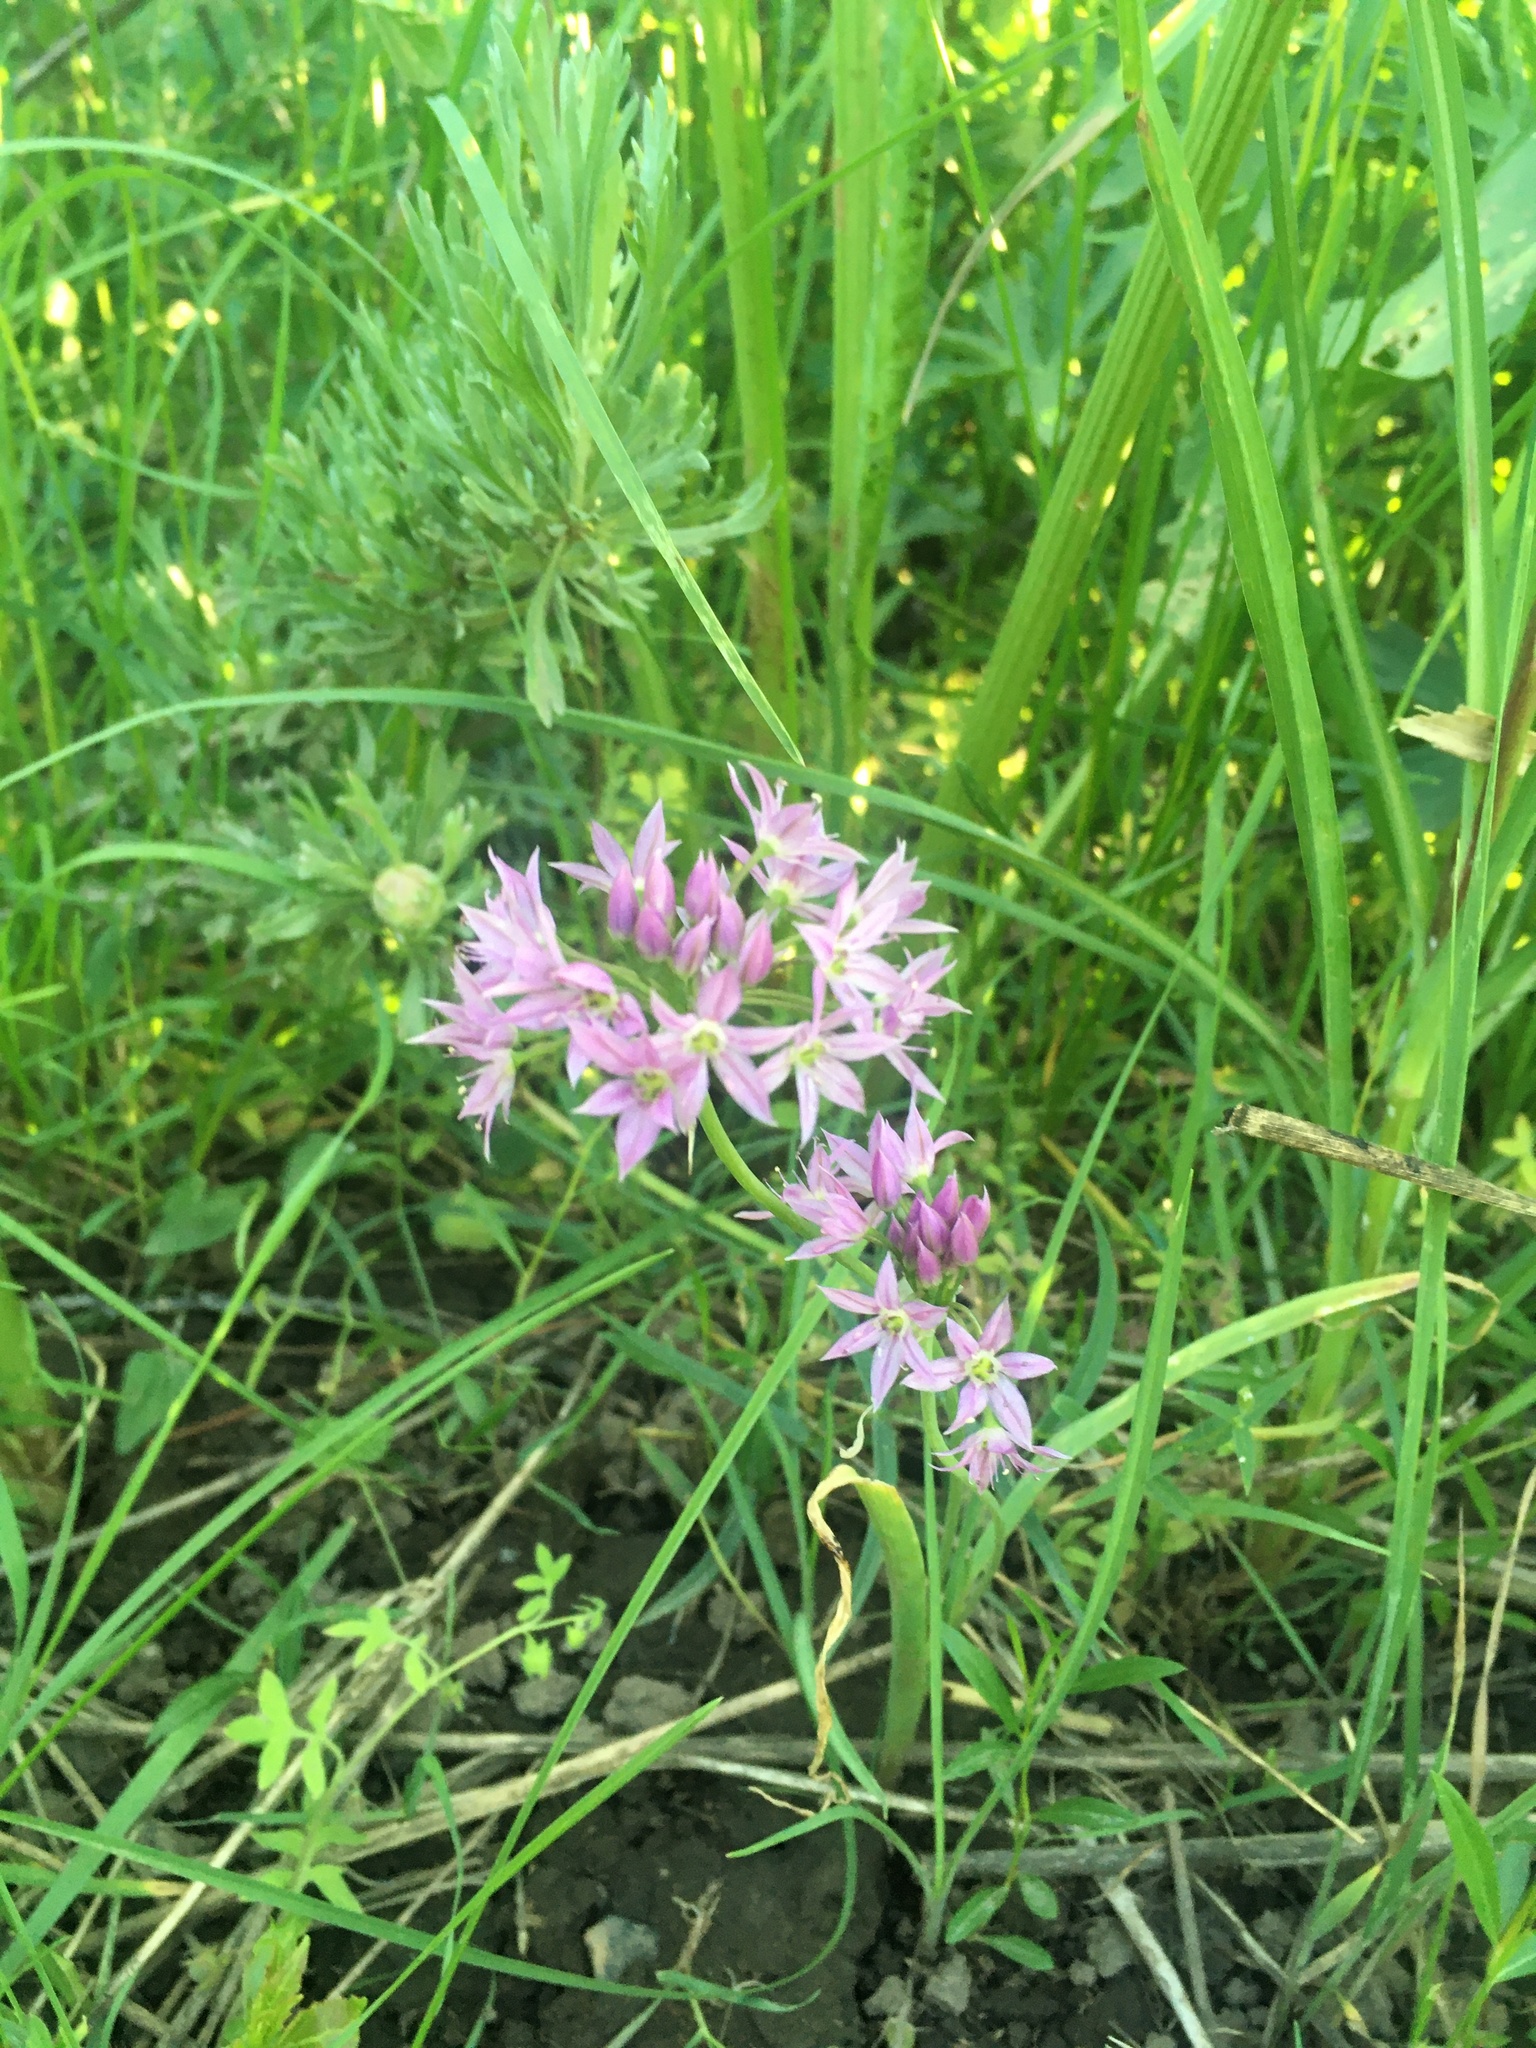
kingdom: Plantae
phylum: Tracheophyta
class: Liliopsida
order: Asparagales
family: Amaryllidaceae
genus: Allium
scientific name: Allium bisceptrum
